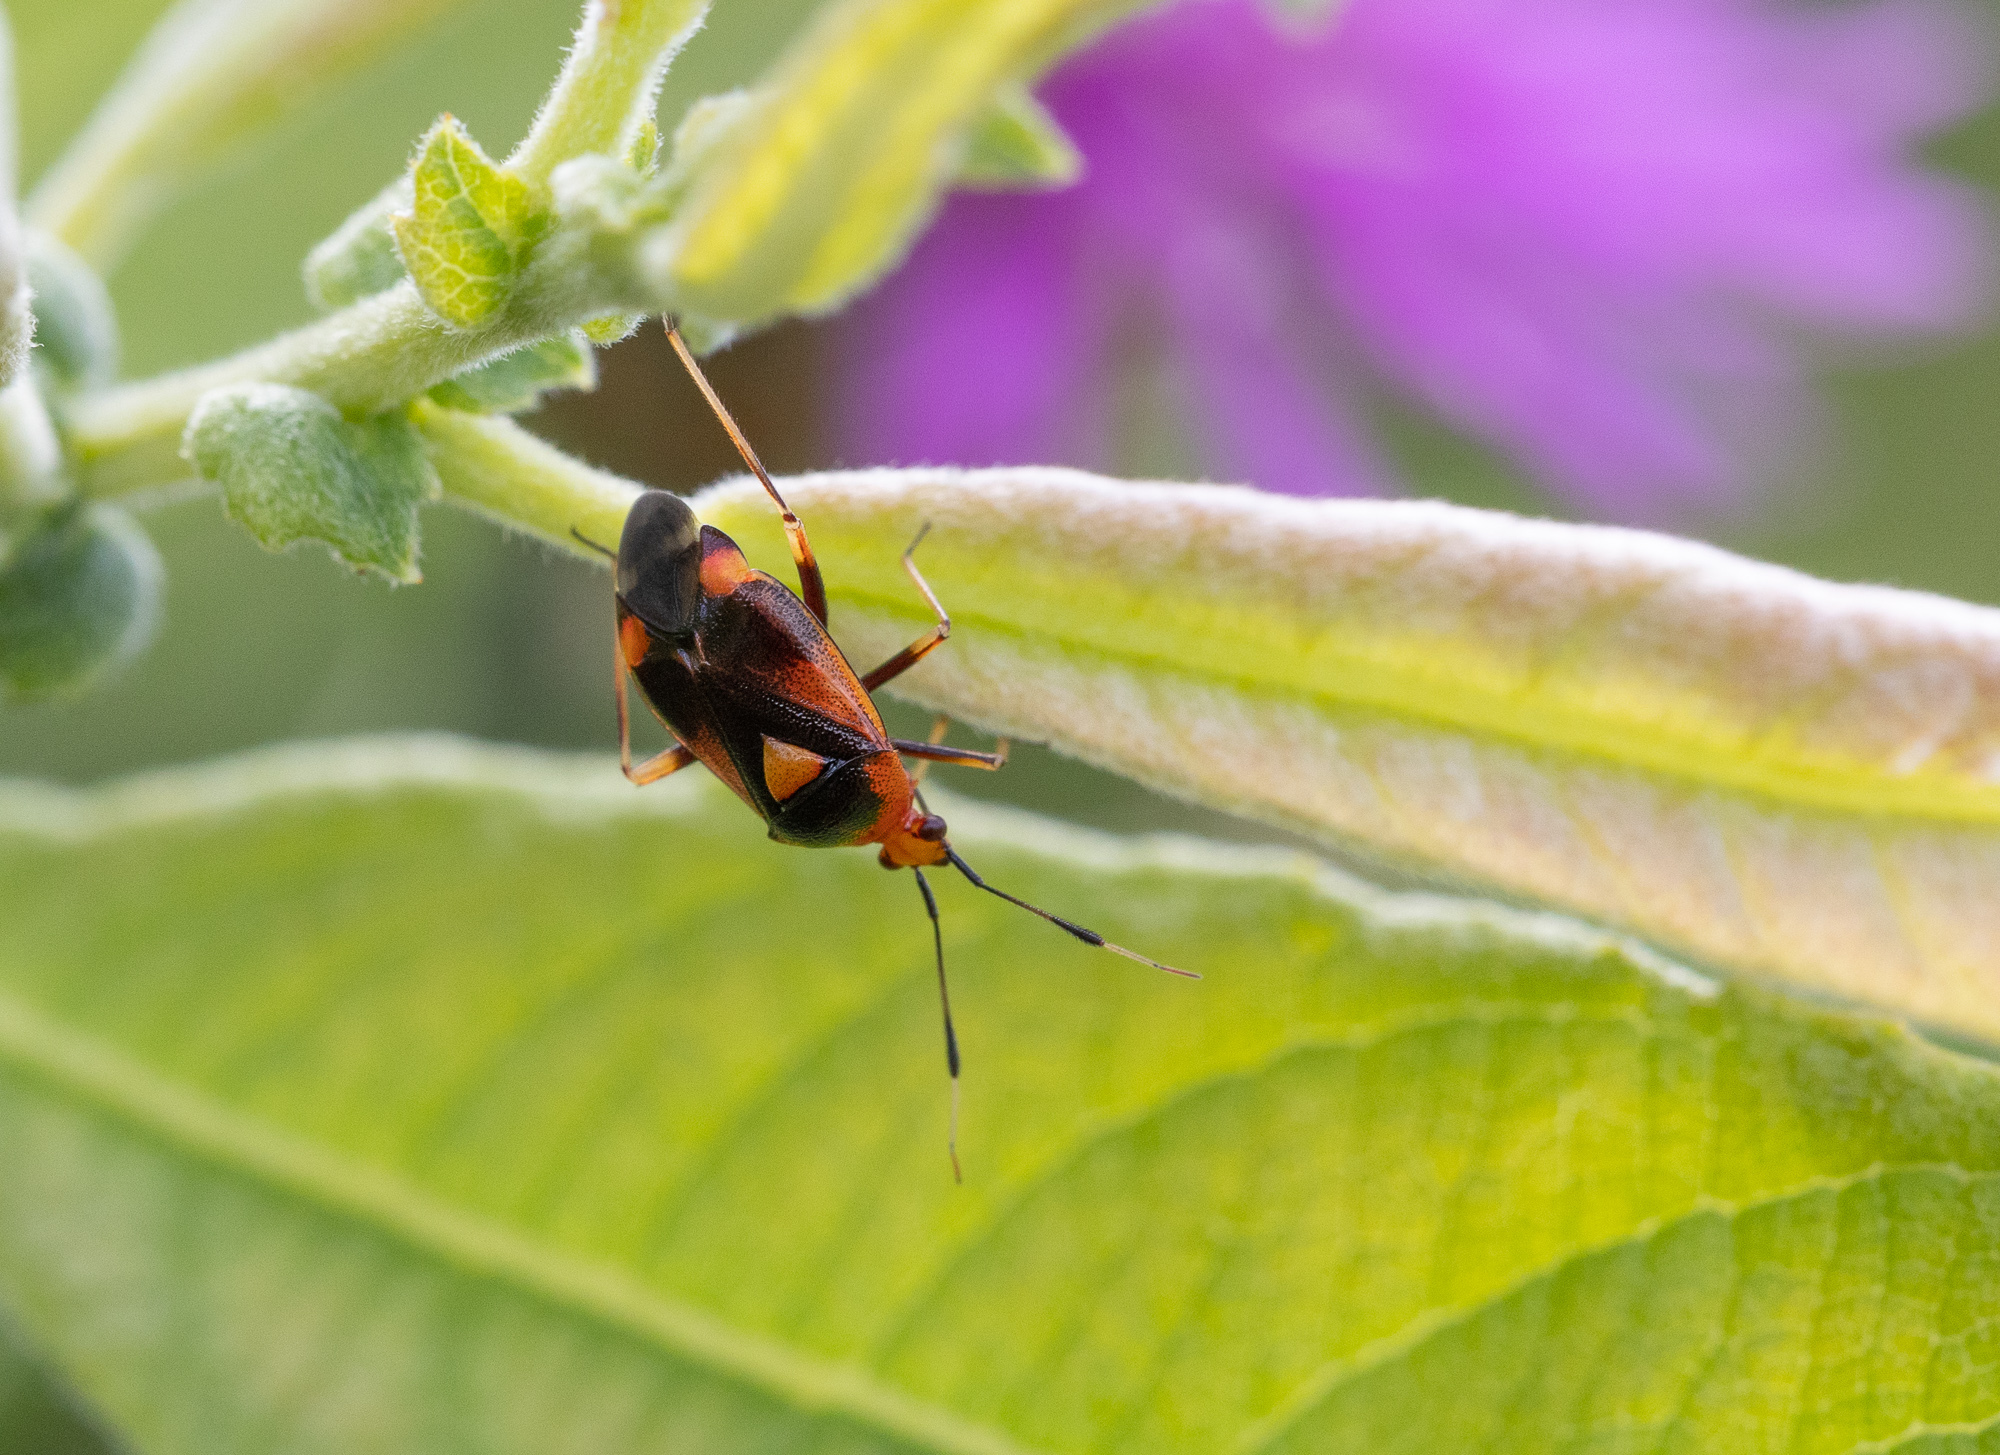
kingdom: Animalia
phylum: Arthropoda
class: Insecta
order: Hemiptera
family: Miridae
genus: Deraeocoris
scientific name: Deraeocoris ruber
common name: Plant bug
